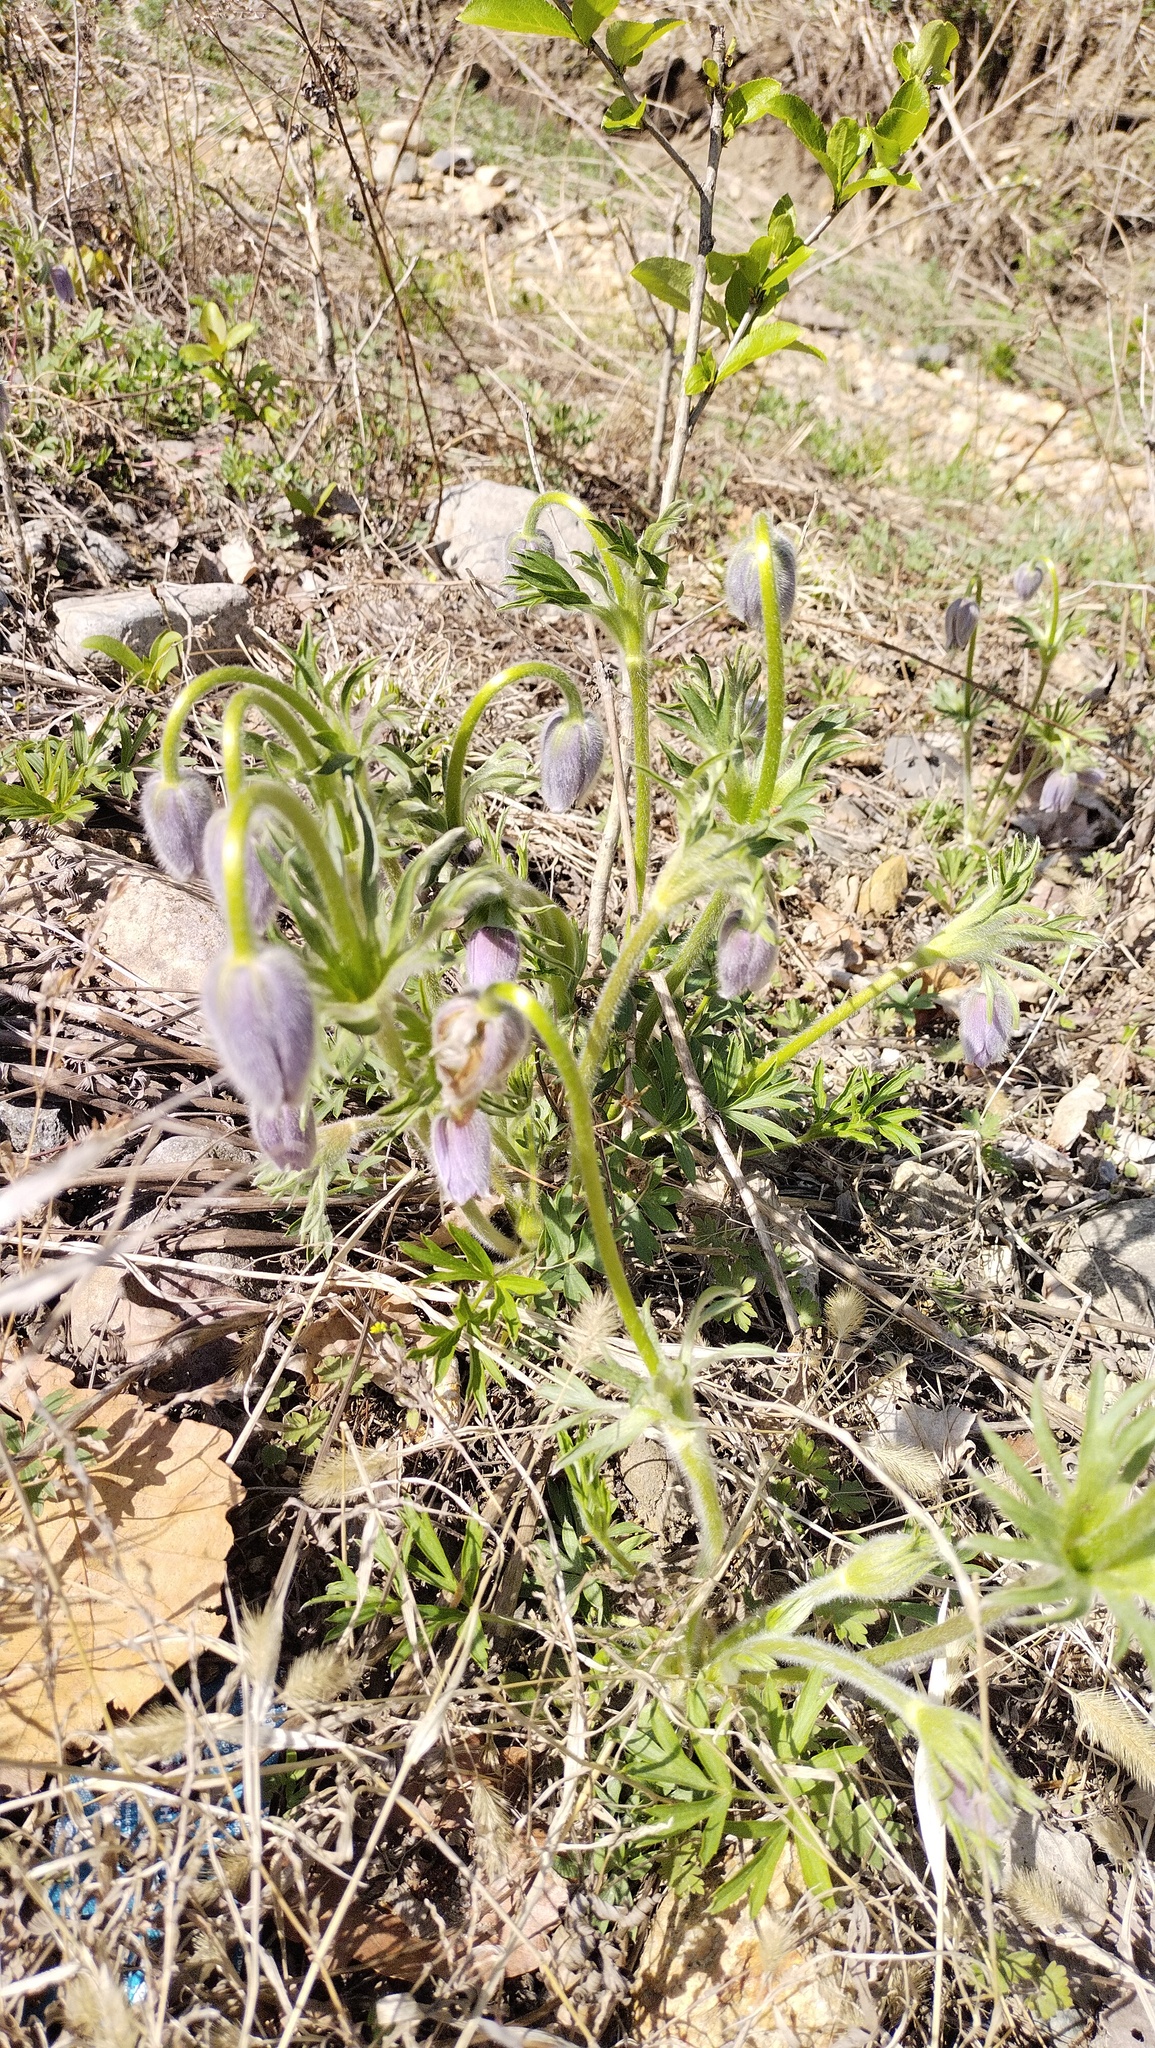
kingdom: Plantae
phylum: Tracheophyta
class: Magnoliopsida
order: Ranunculales
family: Ranunculaceae
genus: Pulsatilla
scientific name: Pulsatilla dahurica
